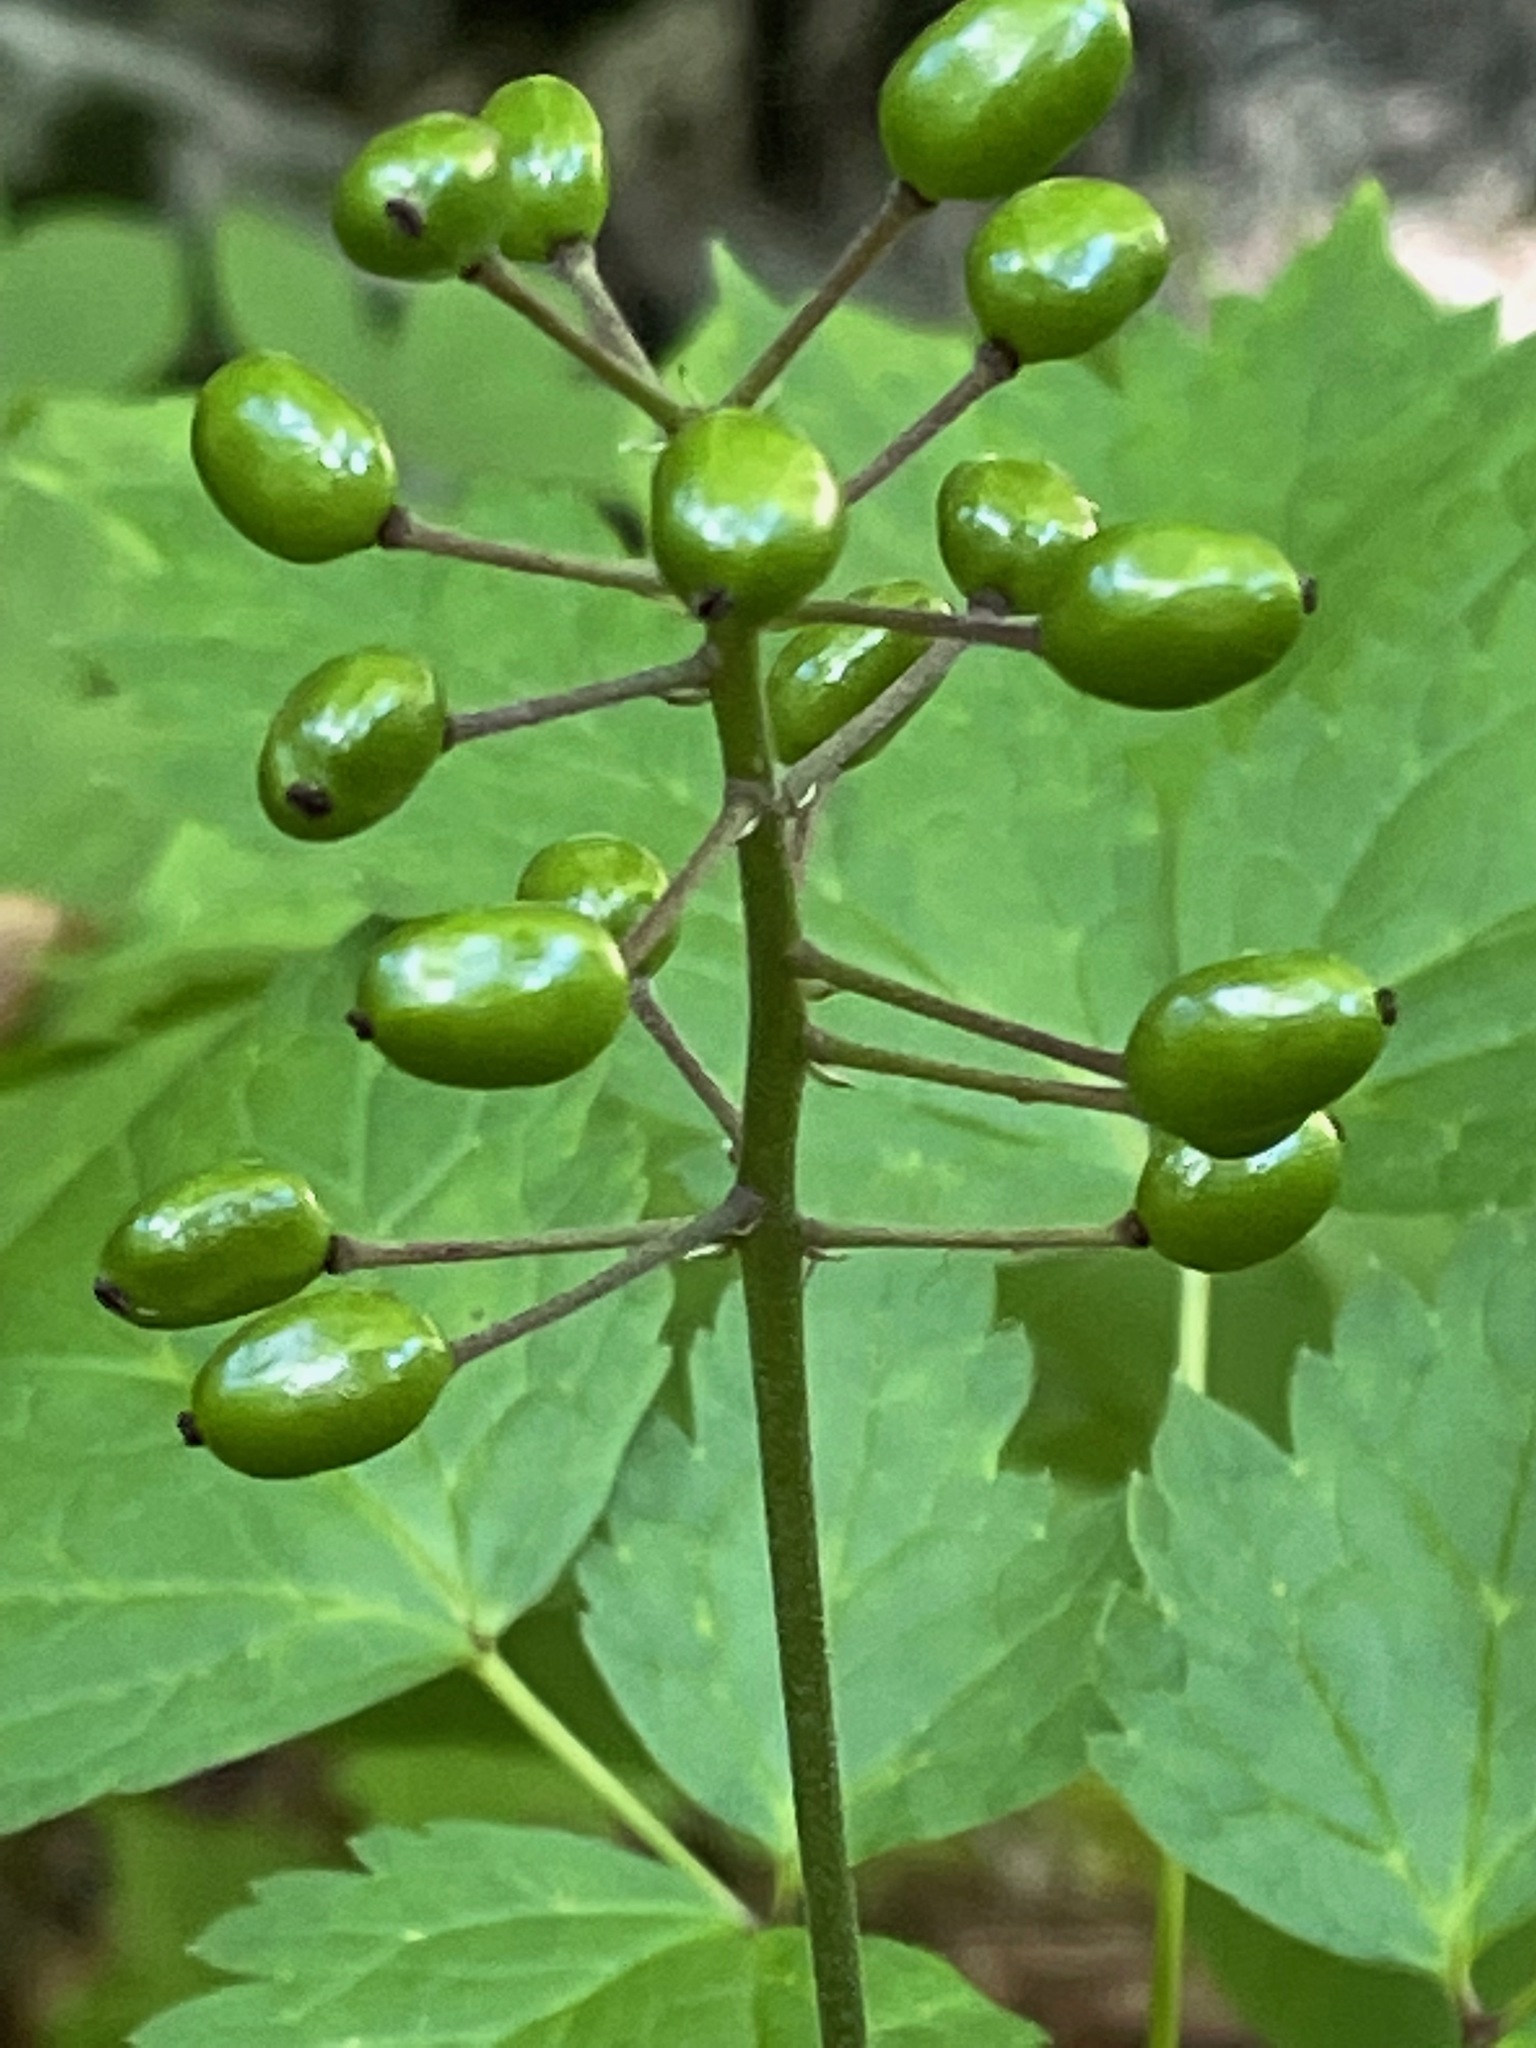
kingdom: Plantae
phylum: Tracheophyta
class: Magnoliopsida
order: Ranunculales
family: Ranunculaceae
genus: Actaea
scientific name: Actaea rubra
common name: Red baneberry
